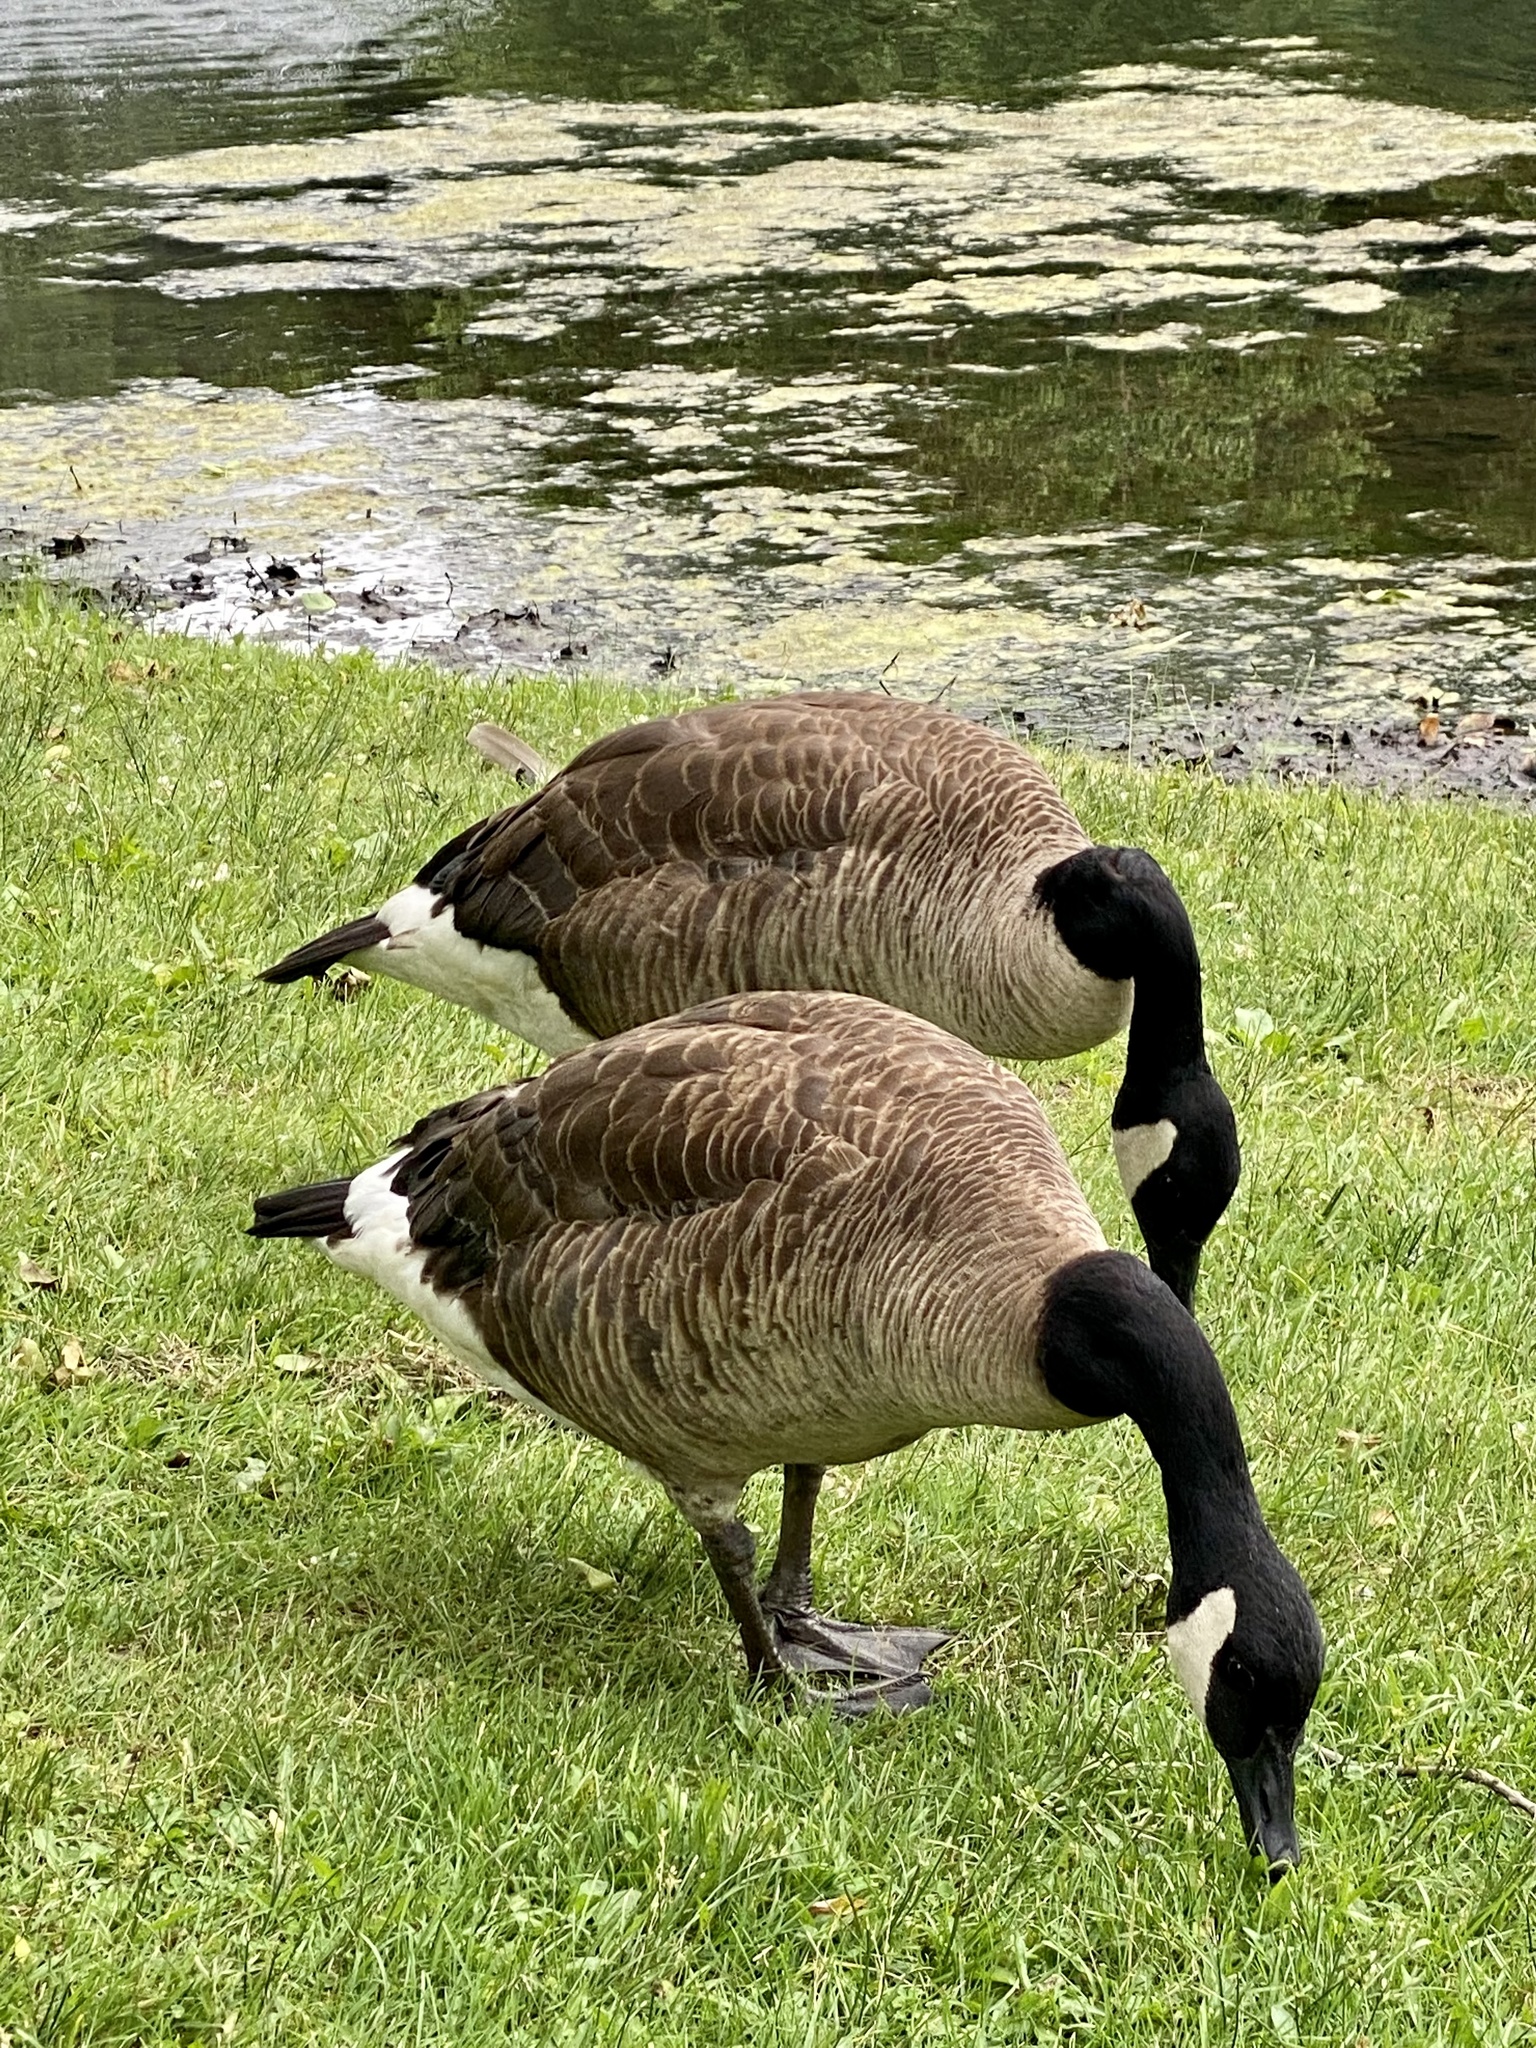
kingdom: Animalia
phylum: Chordata
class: Aves
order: Anseriformes
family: Anatidae
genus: Branta
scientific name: Branta canadensis
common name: Canada goose
